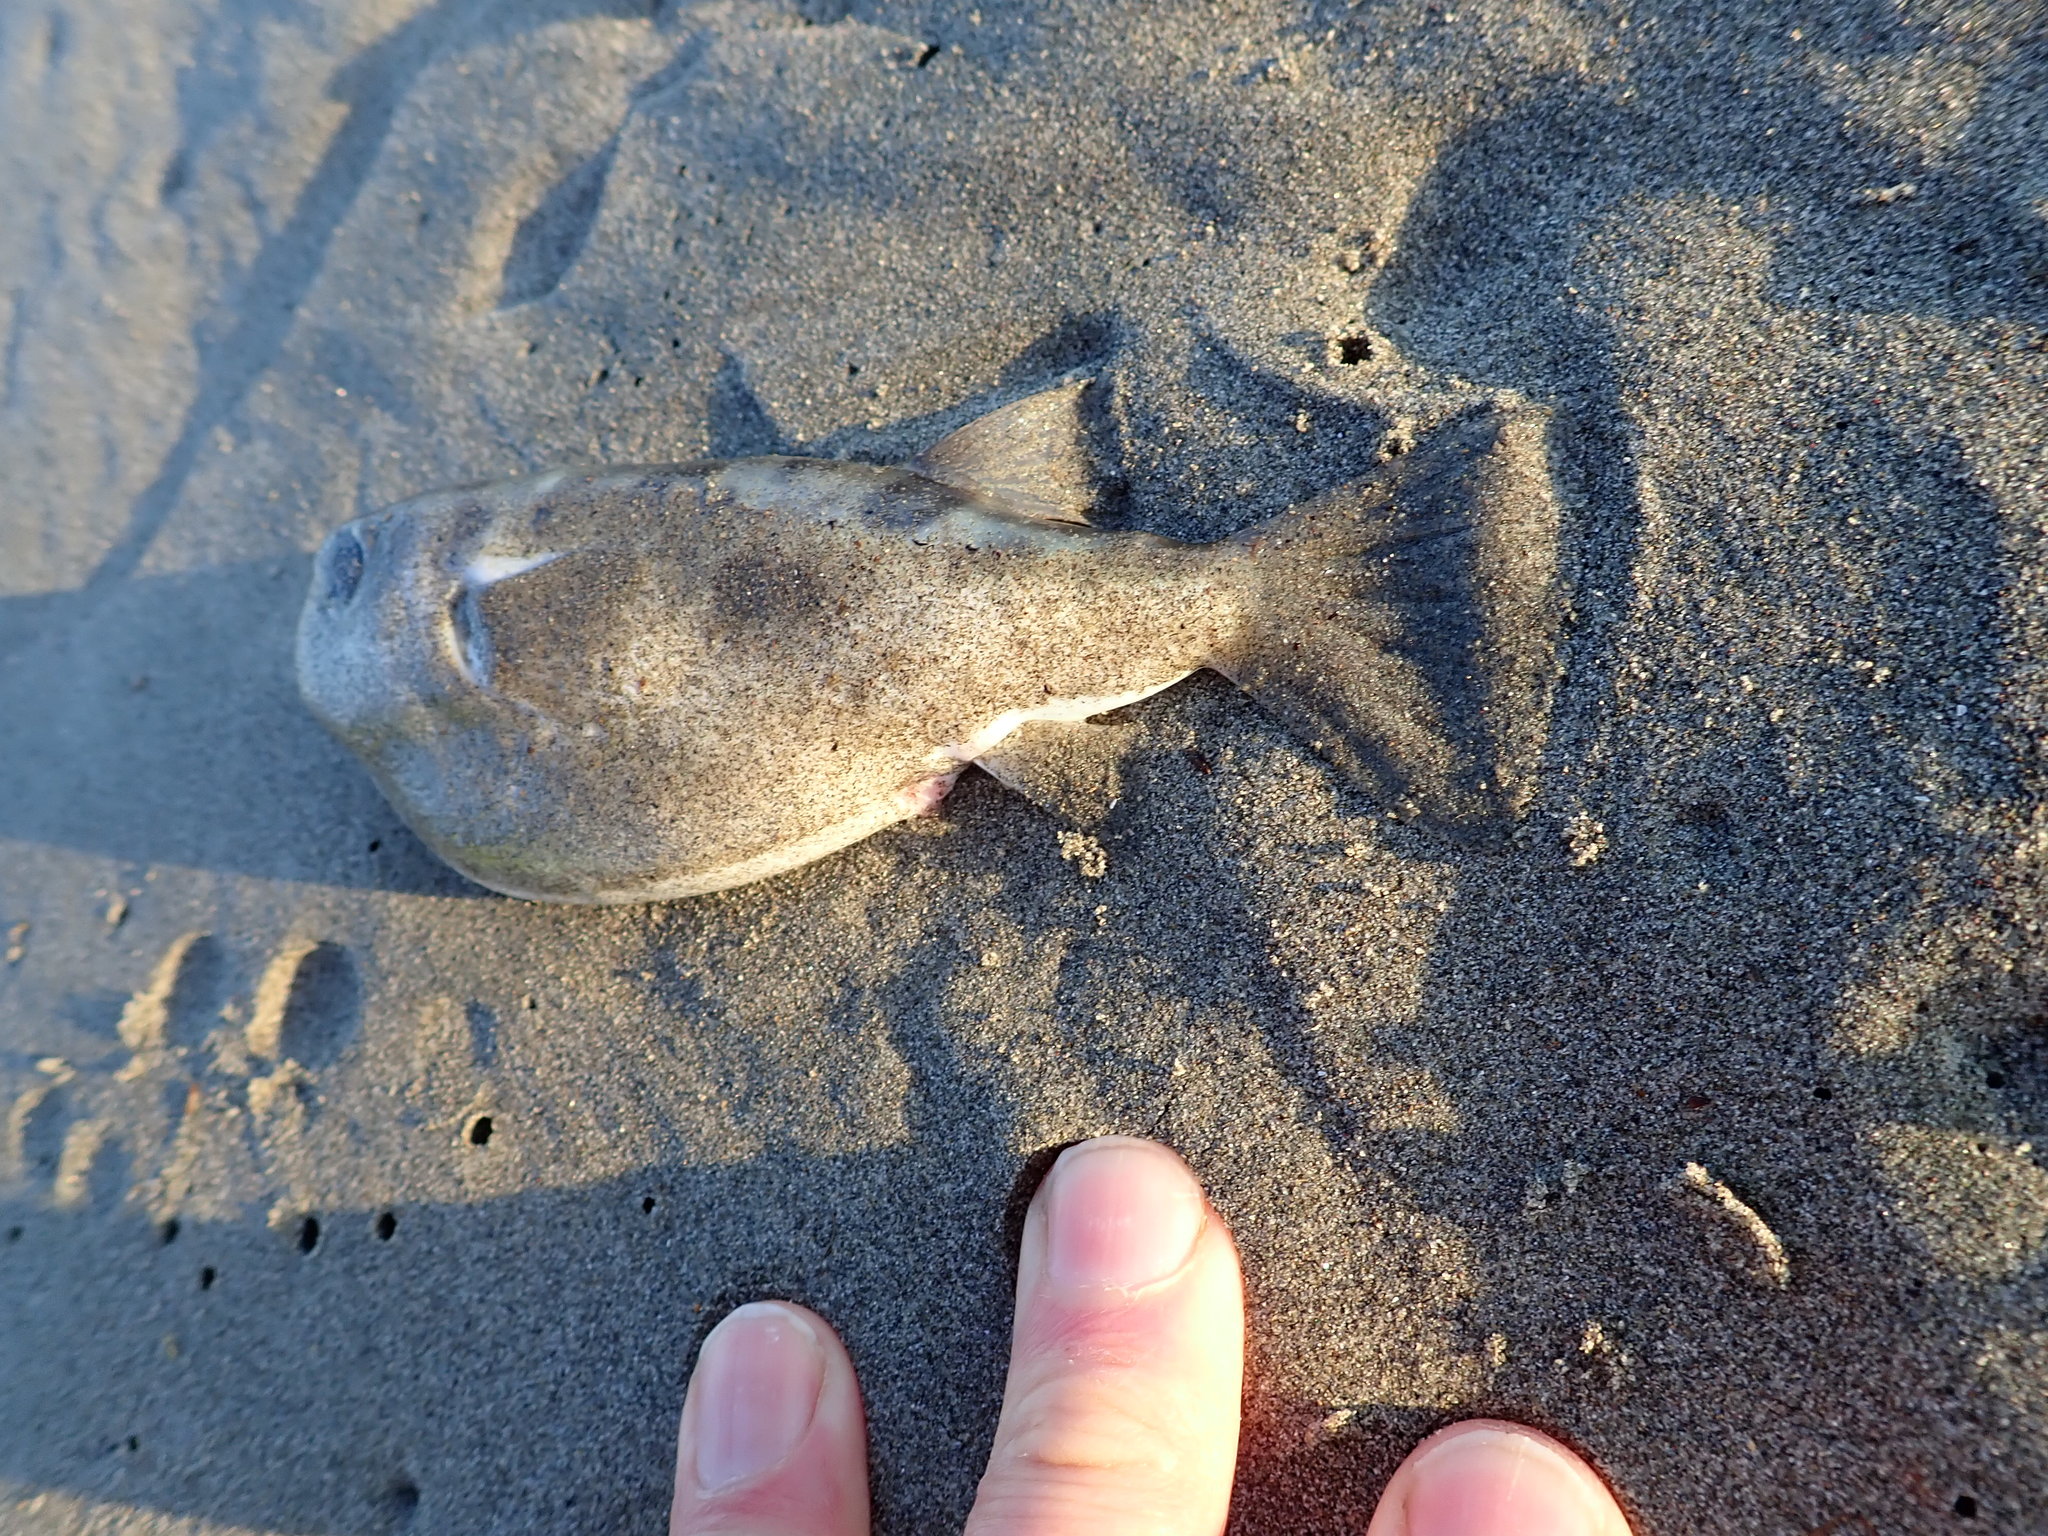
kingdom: Animalia
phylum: Chordata
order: Tetraodontiformes
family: Tetraodontidae
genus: Contusus
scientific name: Contusus richei
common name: Barred toadfish
